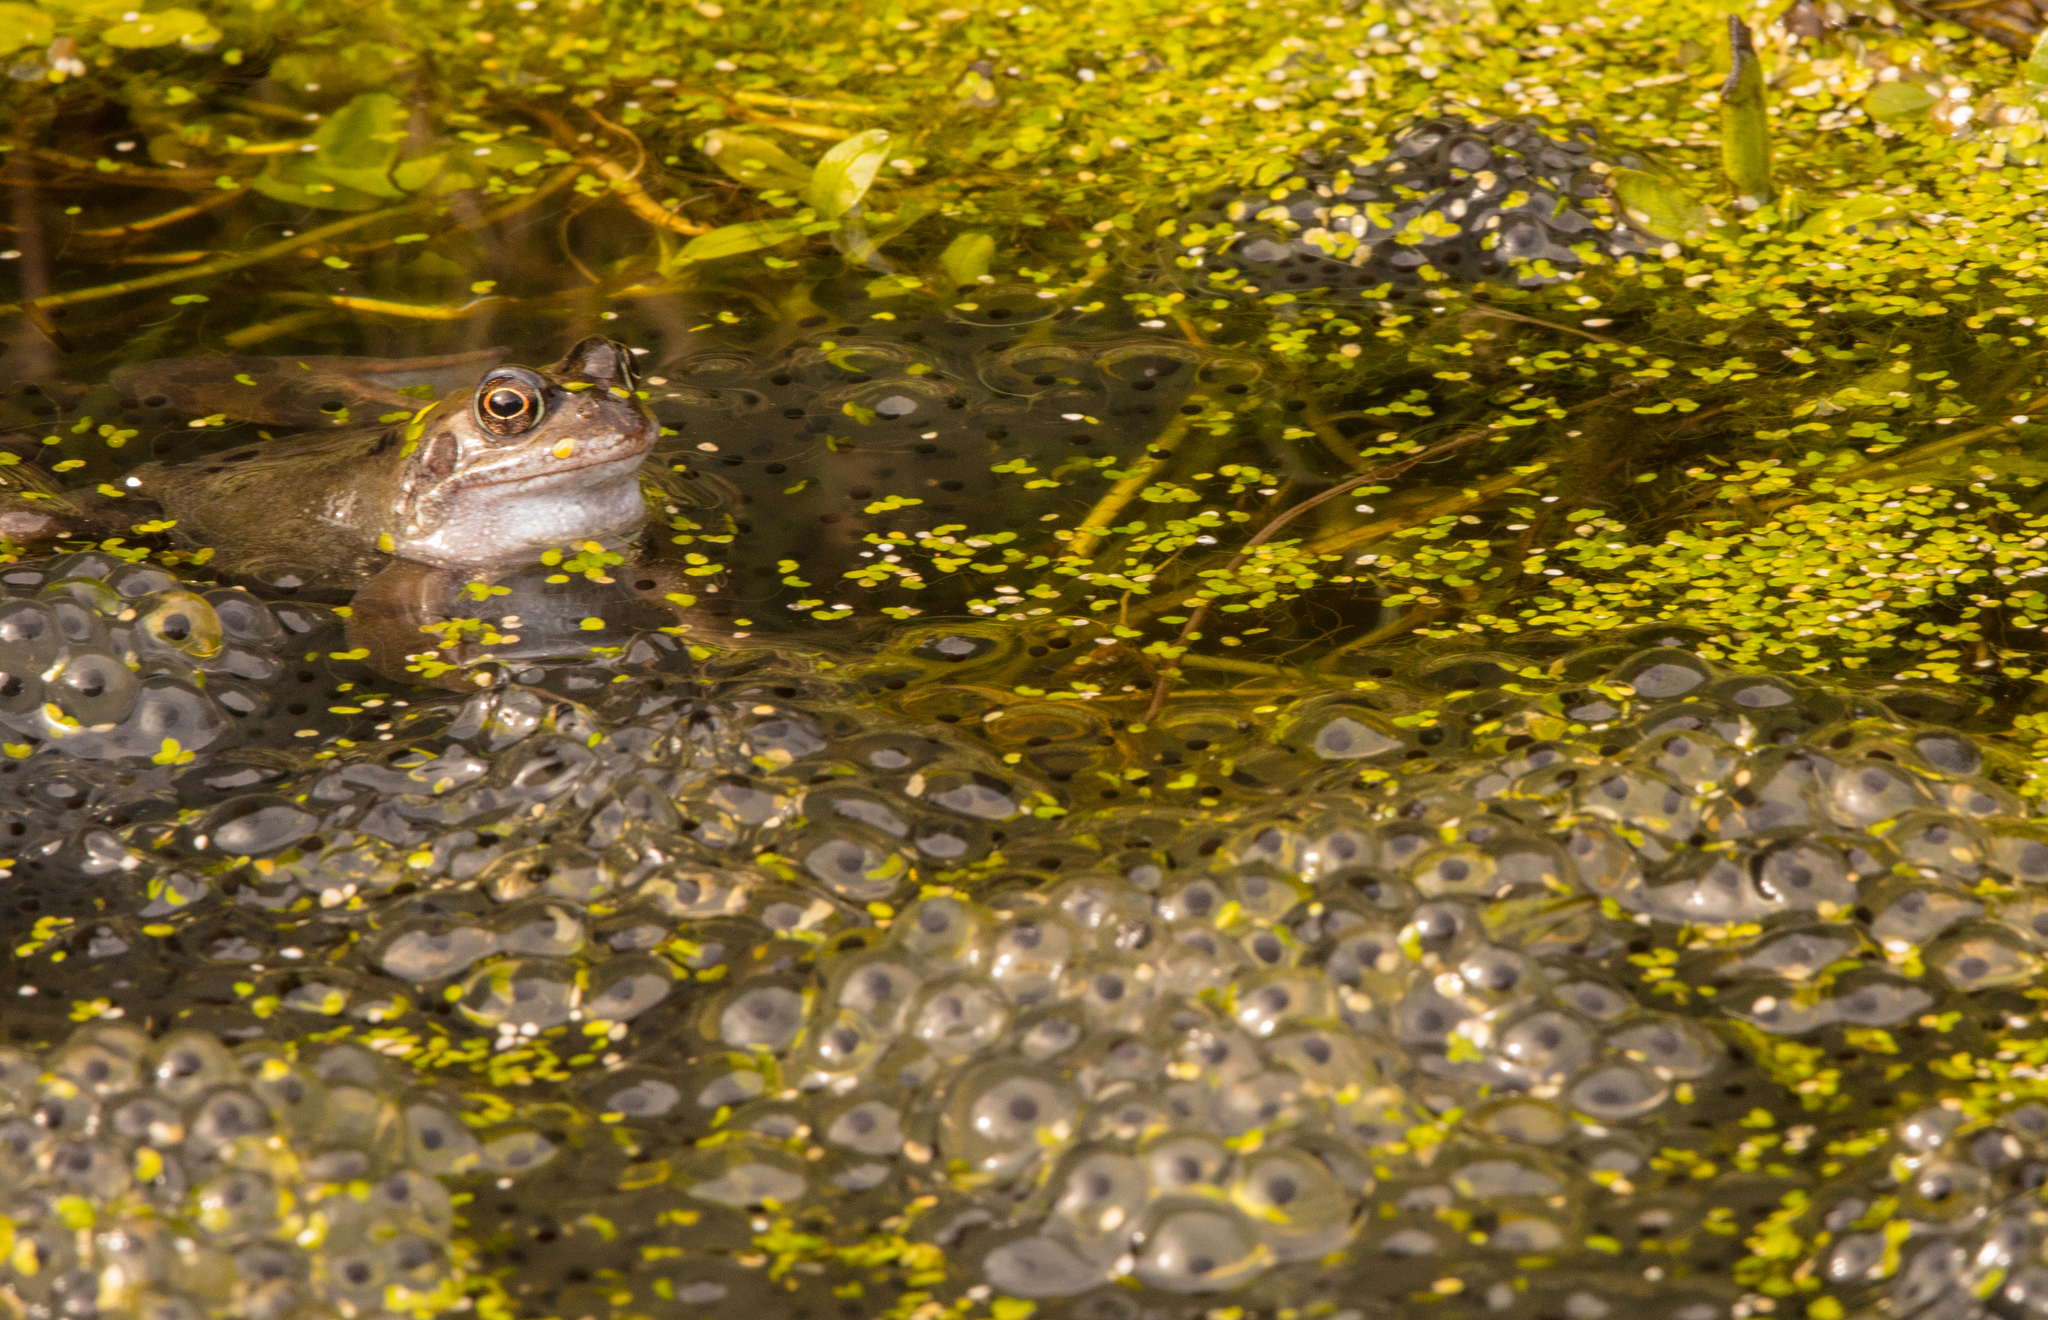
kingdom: Animalia
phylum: Chordata
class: Amphibia
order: Anura
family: Ranidae
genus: Rana
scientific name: Rana temporaria
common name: Common frog
